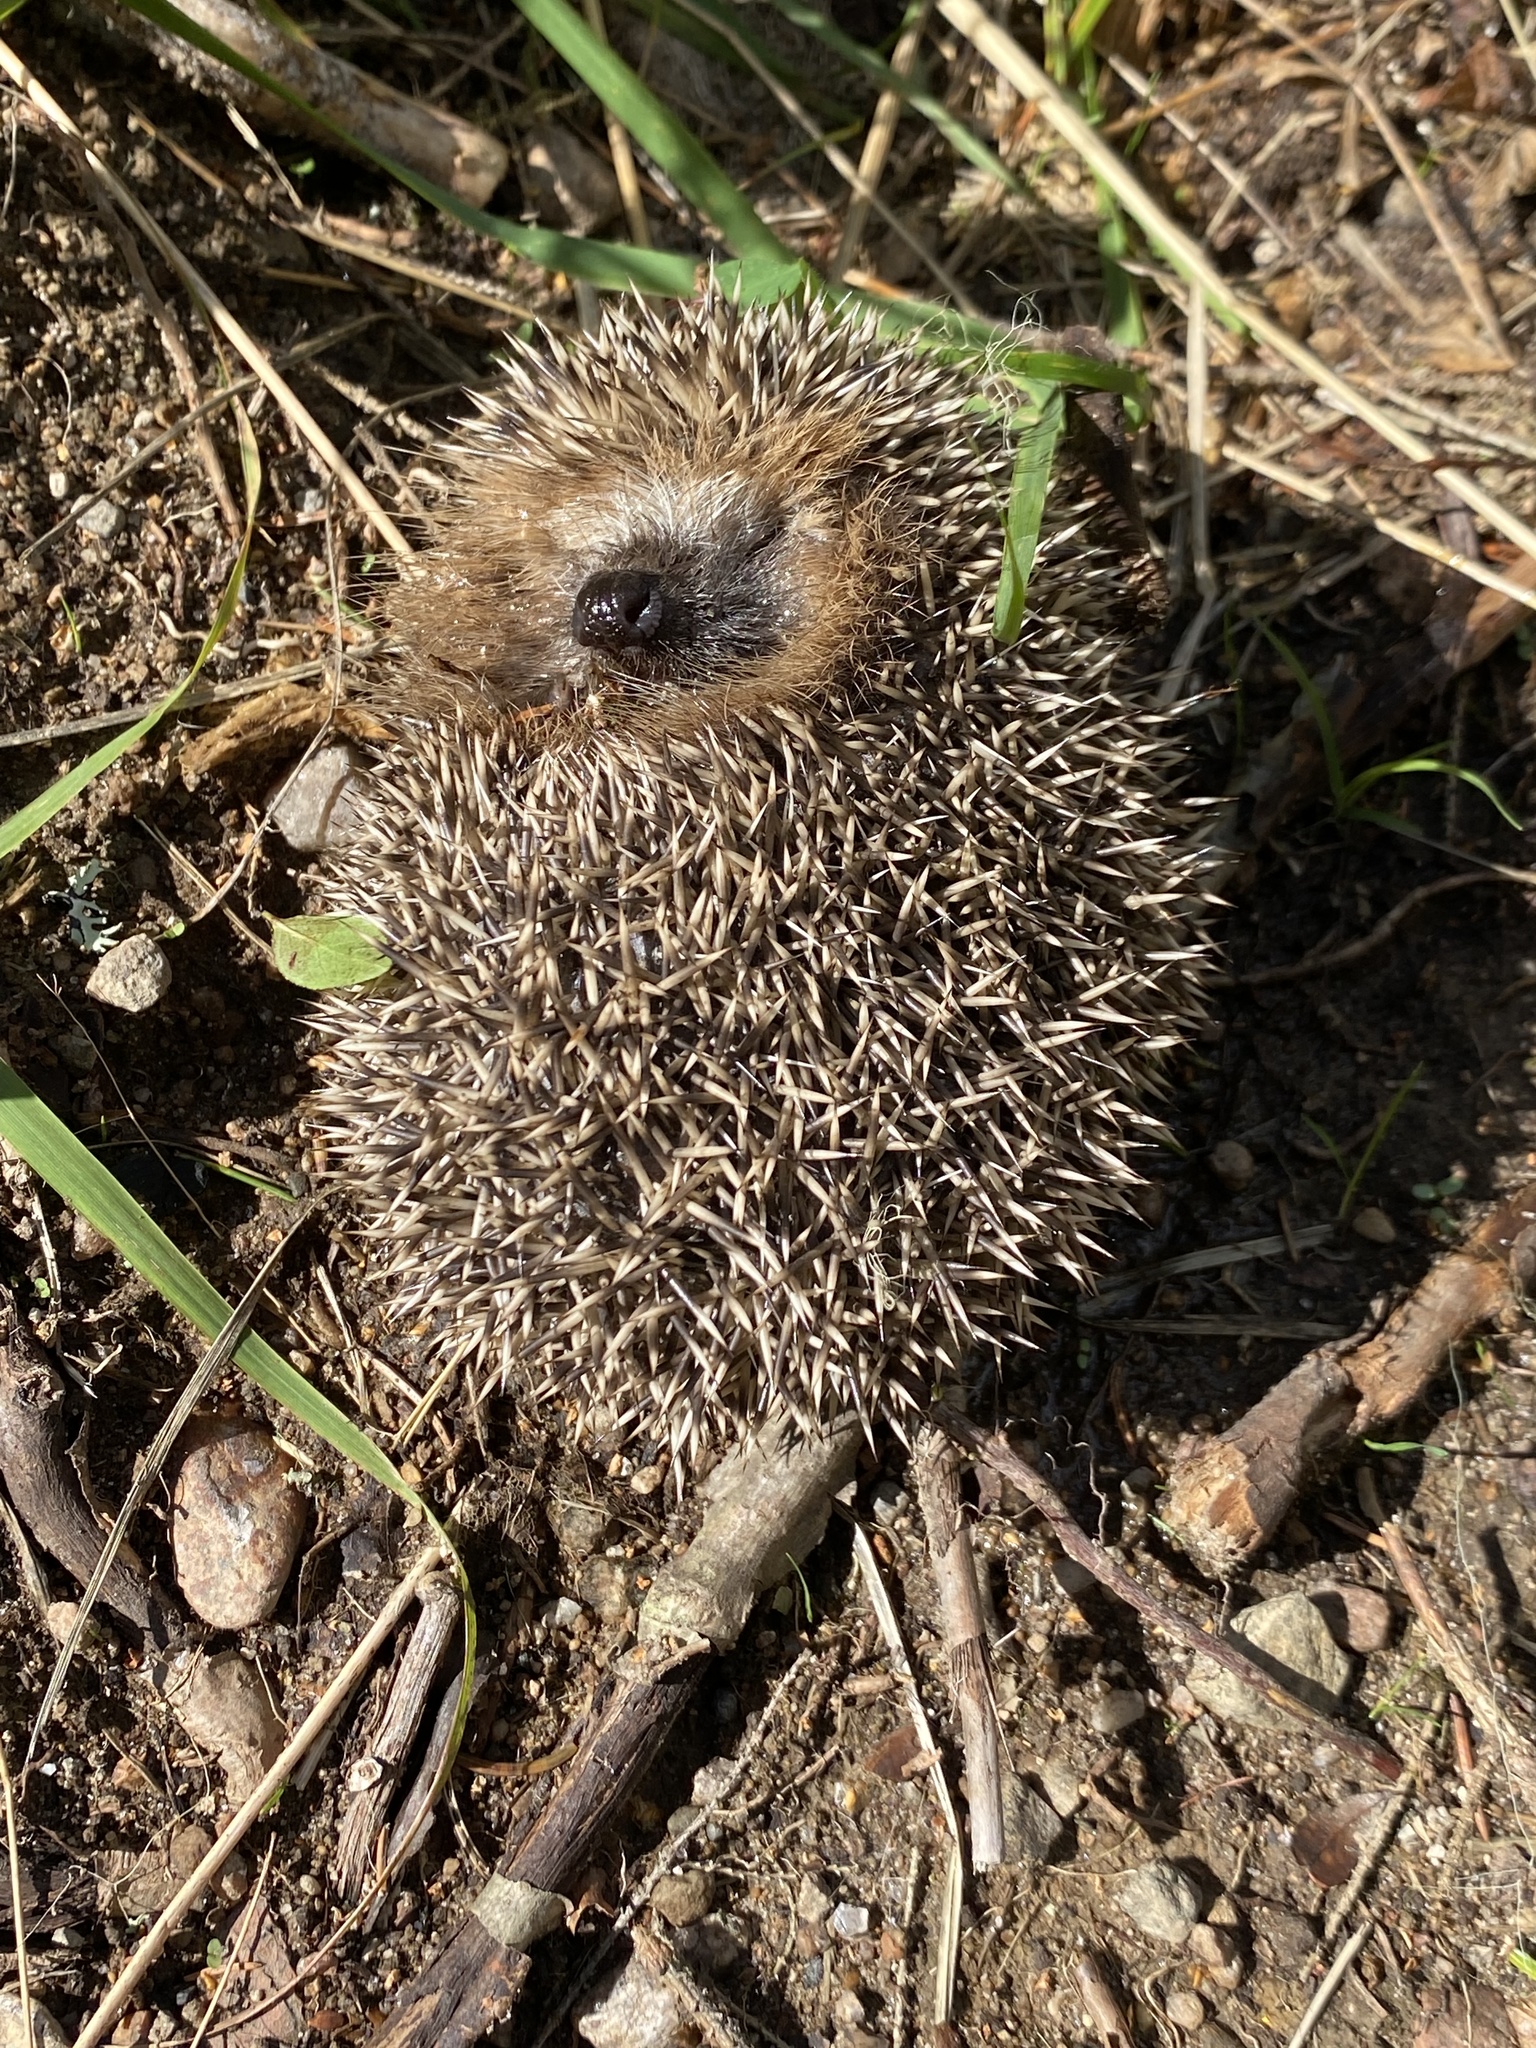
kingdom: Animalia
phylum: Chordata
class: Mammalia
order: Erinaceomorpha
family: Erinaceidae
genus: Erinaceus
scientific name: Erinaceus europaeus
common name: West european hedgehog
